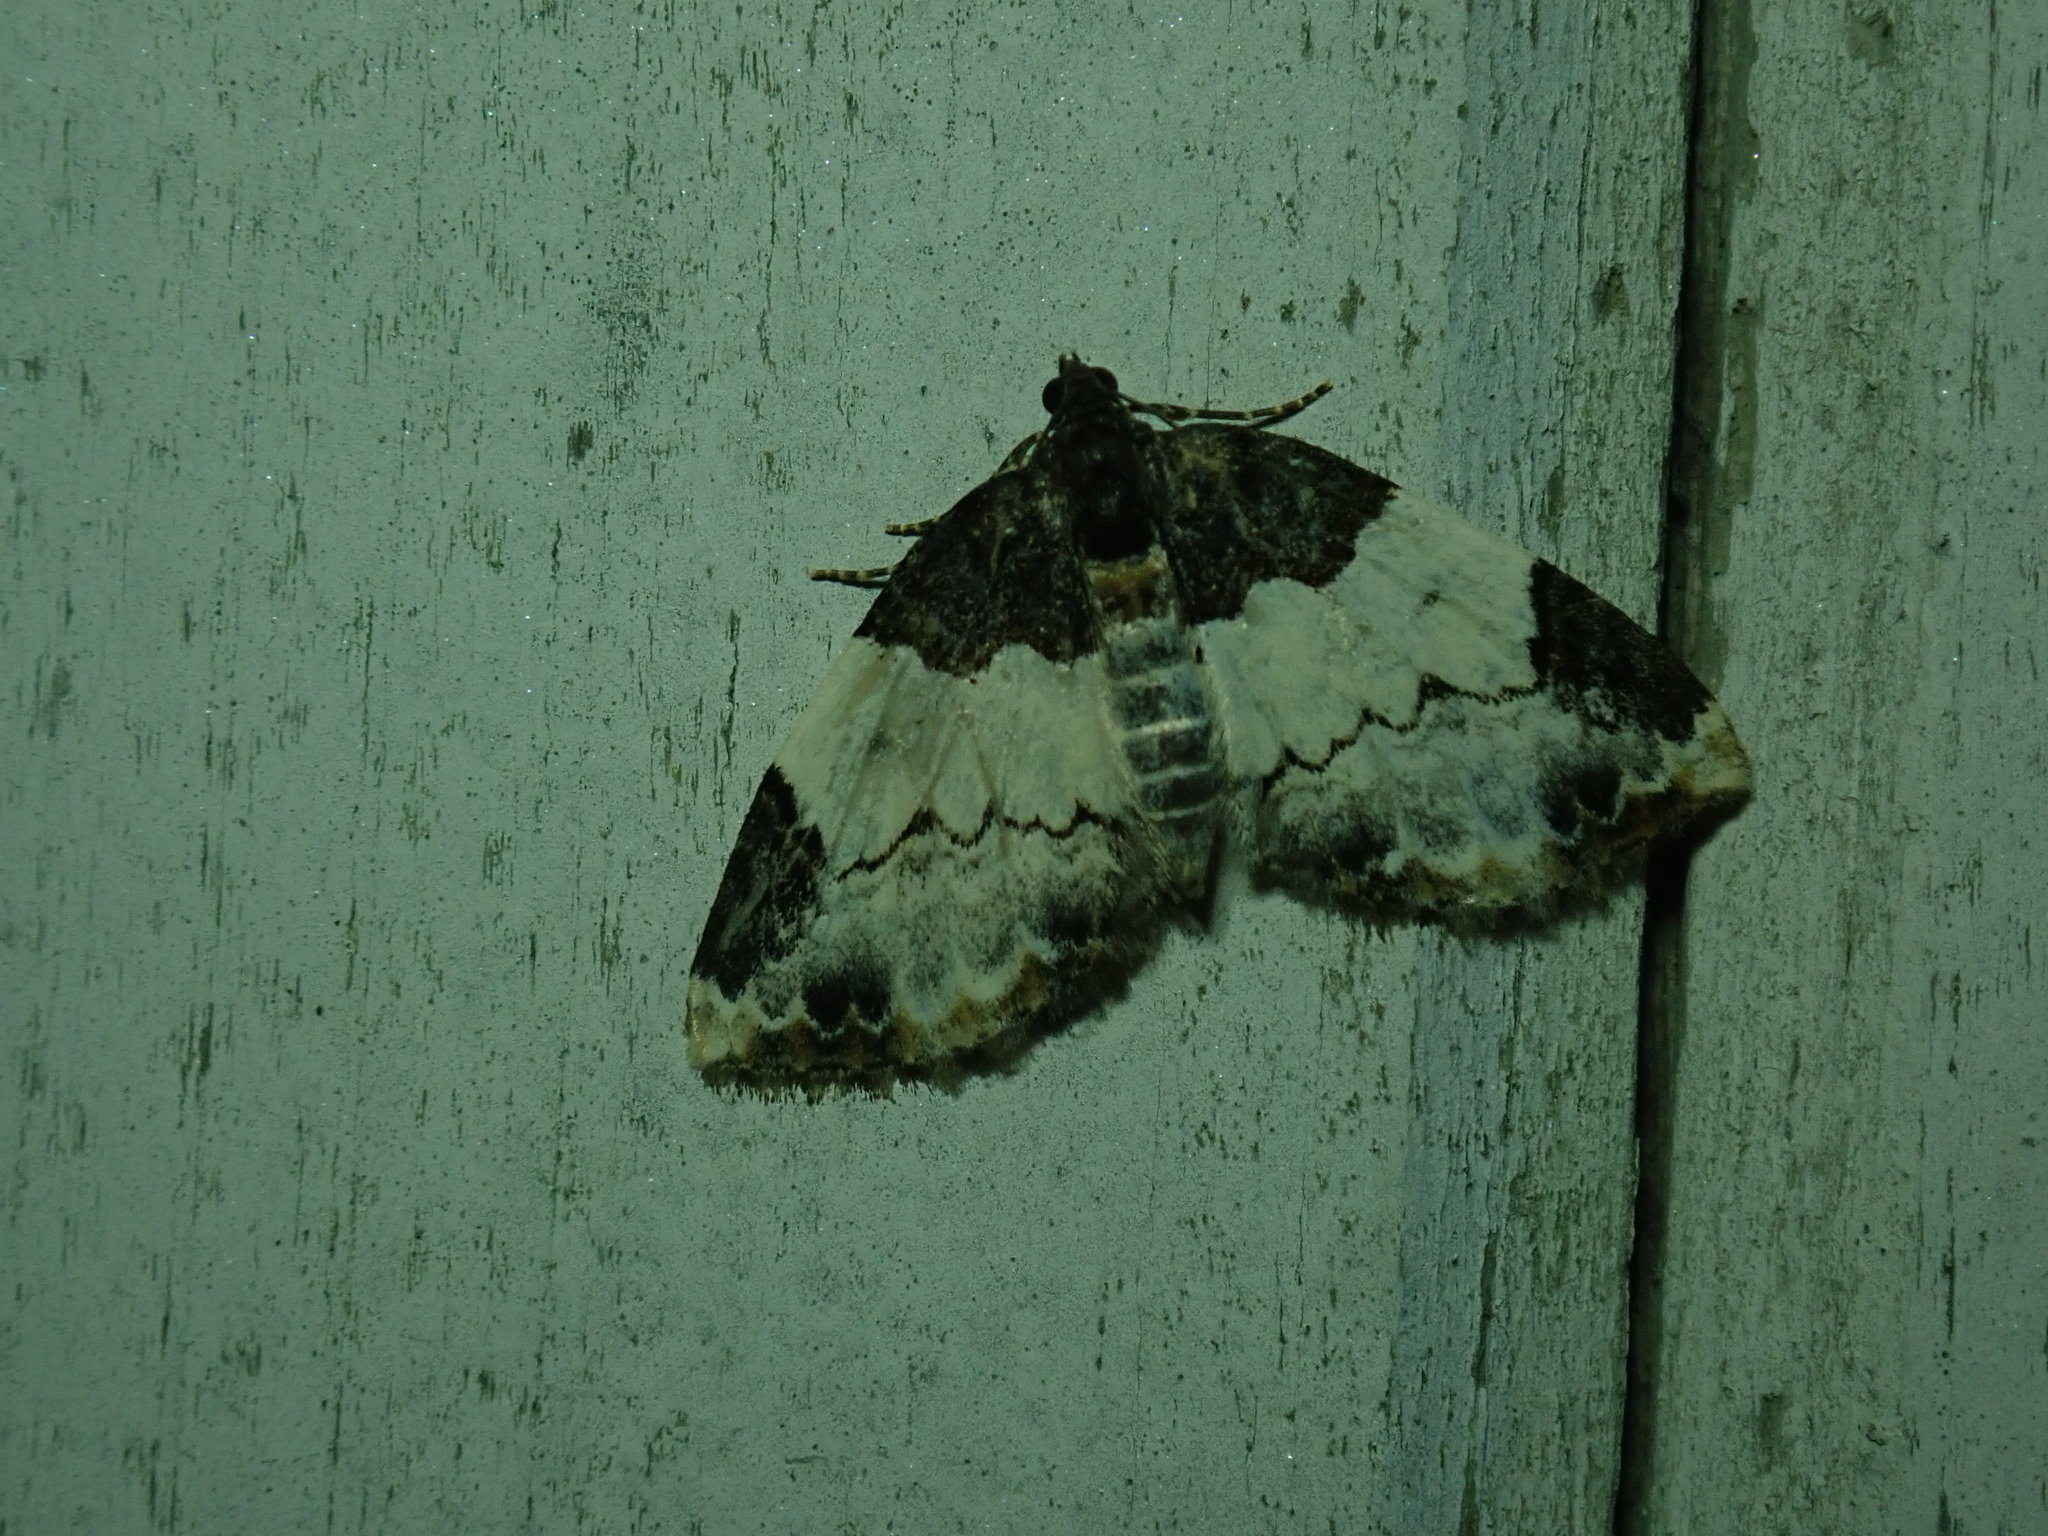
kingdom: Animalia
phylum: Arthropoda
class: Insecta
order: Lepidoptera
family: Geometridae
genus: Mesoleuca
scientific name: Mesoleuca ruficillata
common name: White-ribboned carpet moth
